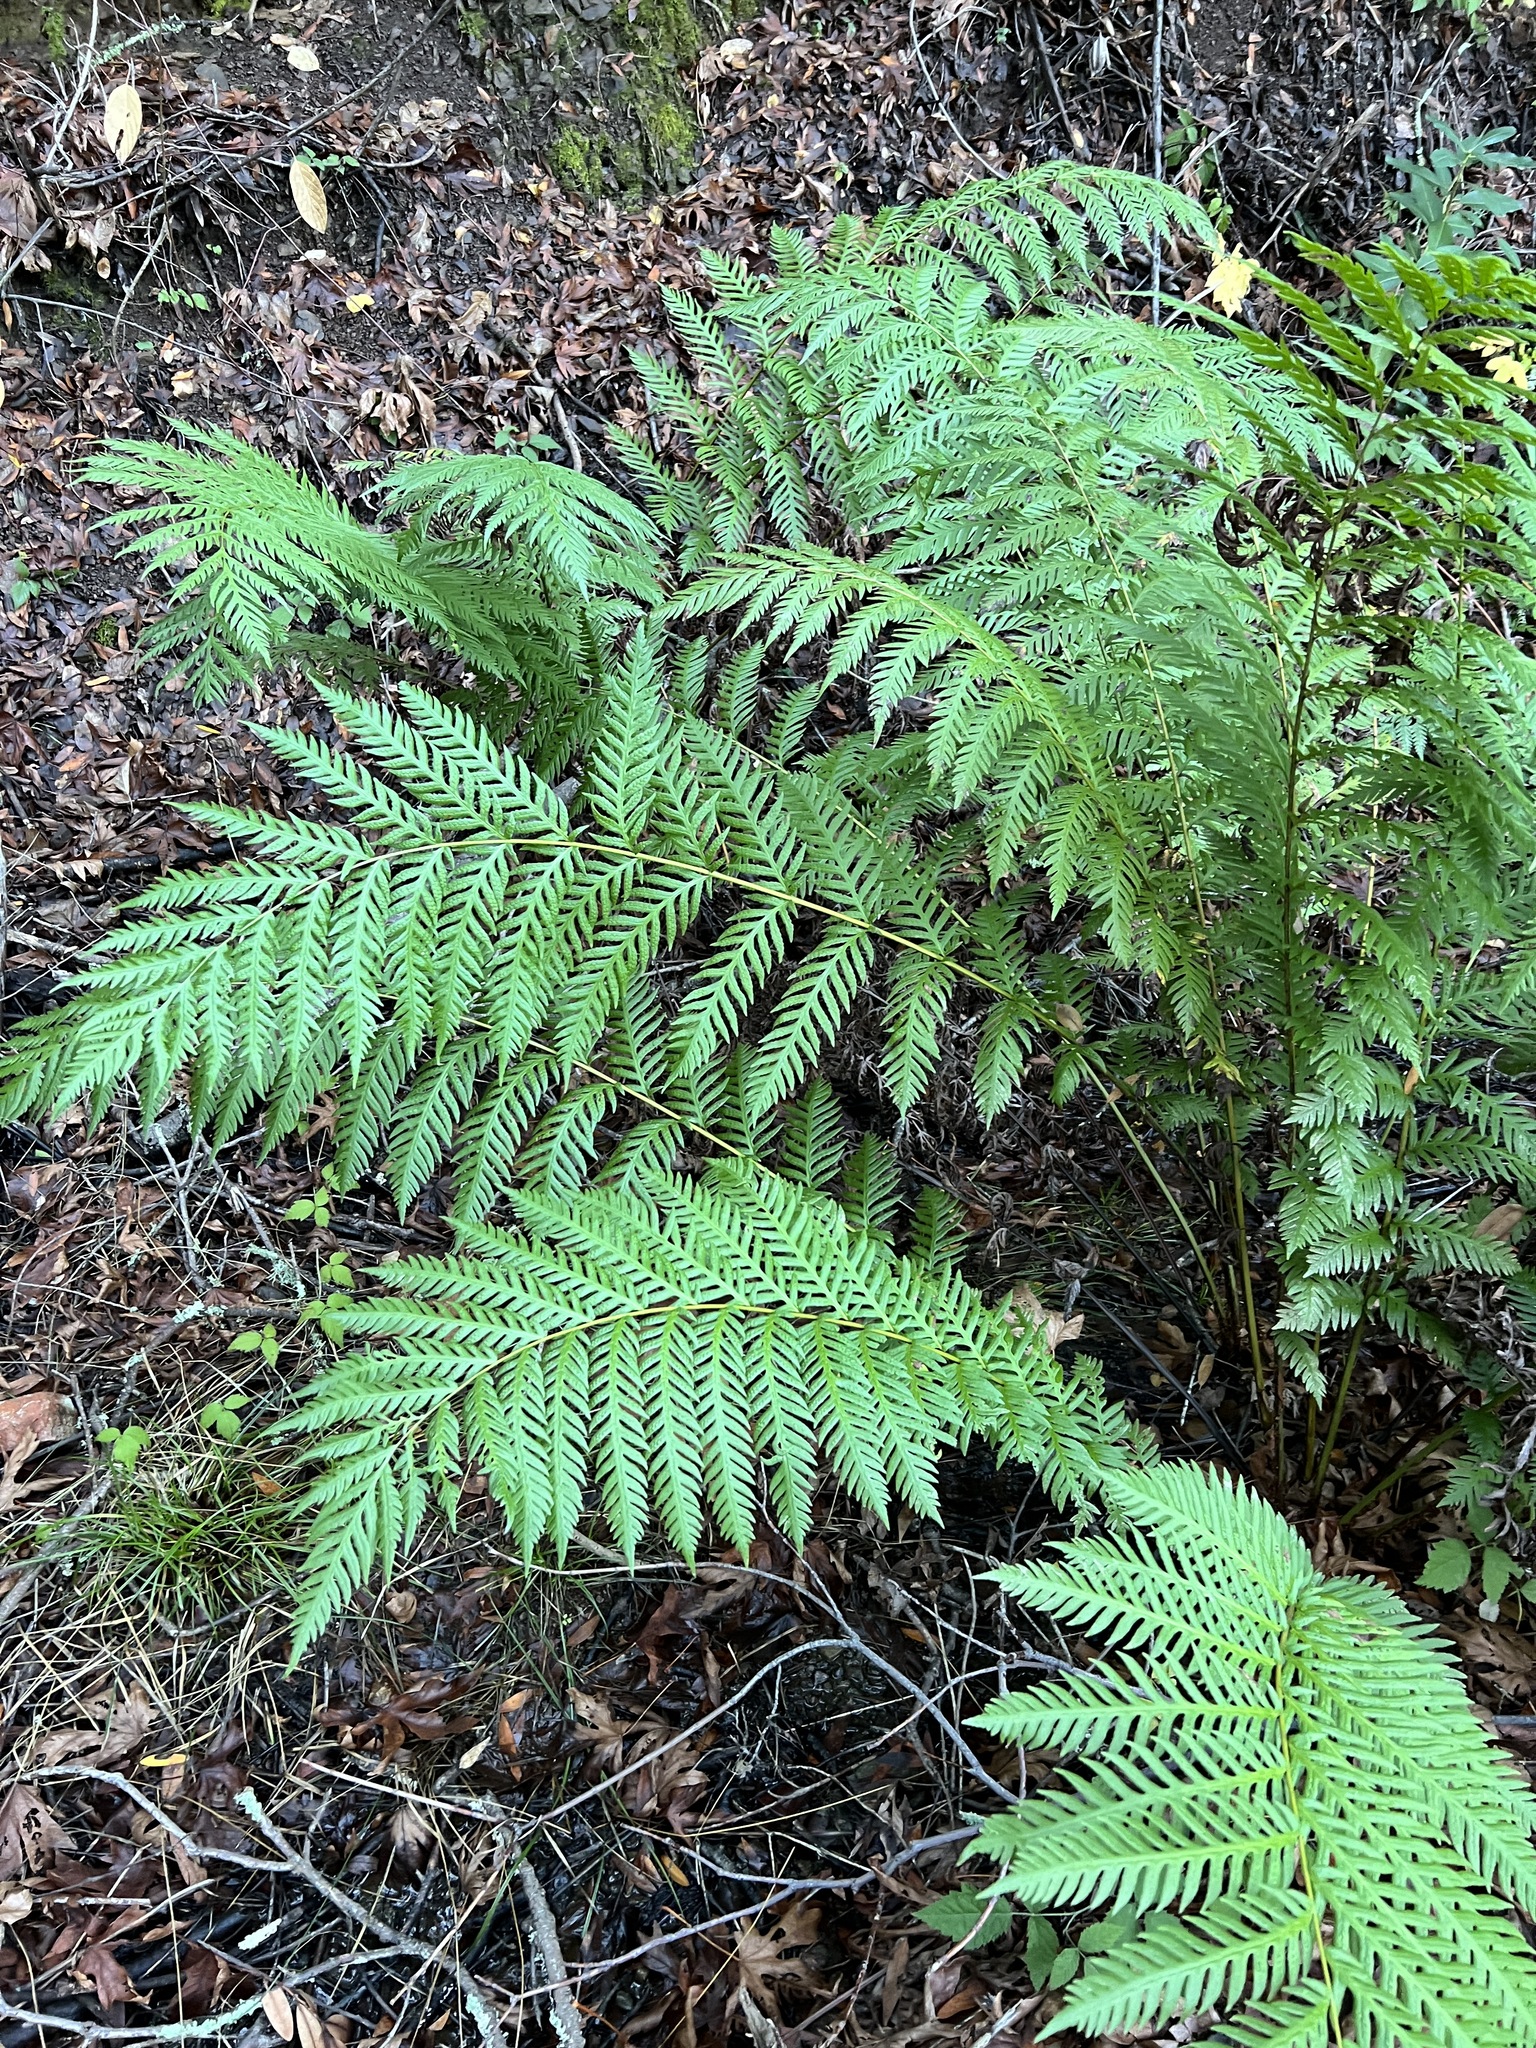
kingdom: Plantae
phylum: Tracheophyta
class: Polypodiopsida
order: Polypodiales
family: Blechnaceae
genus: Woodwardia
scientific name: Woodwardia fimbriata
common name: Giant chain fern
